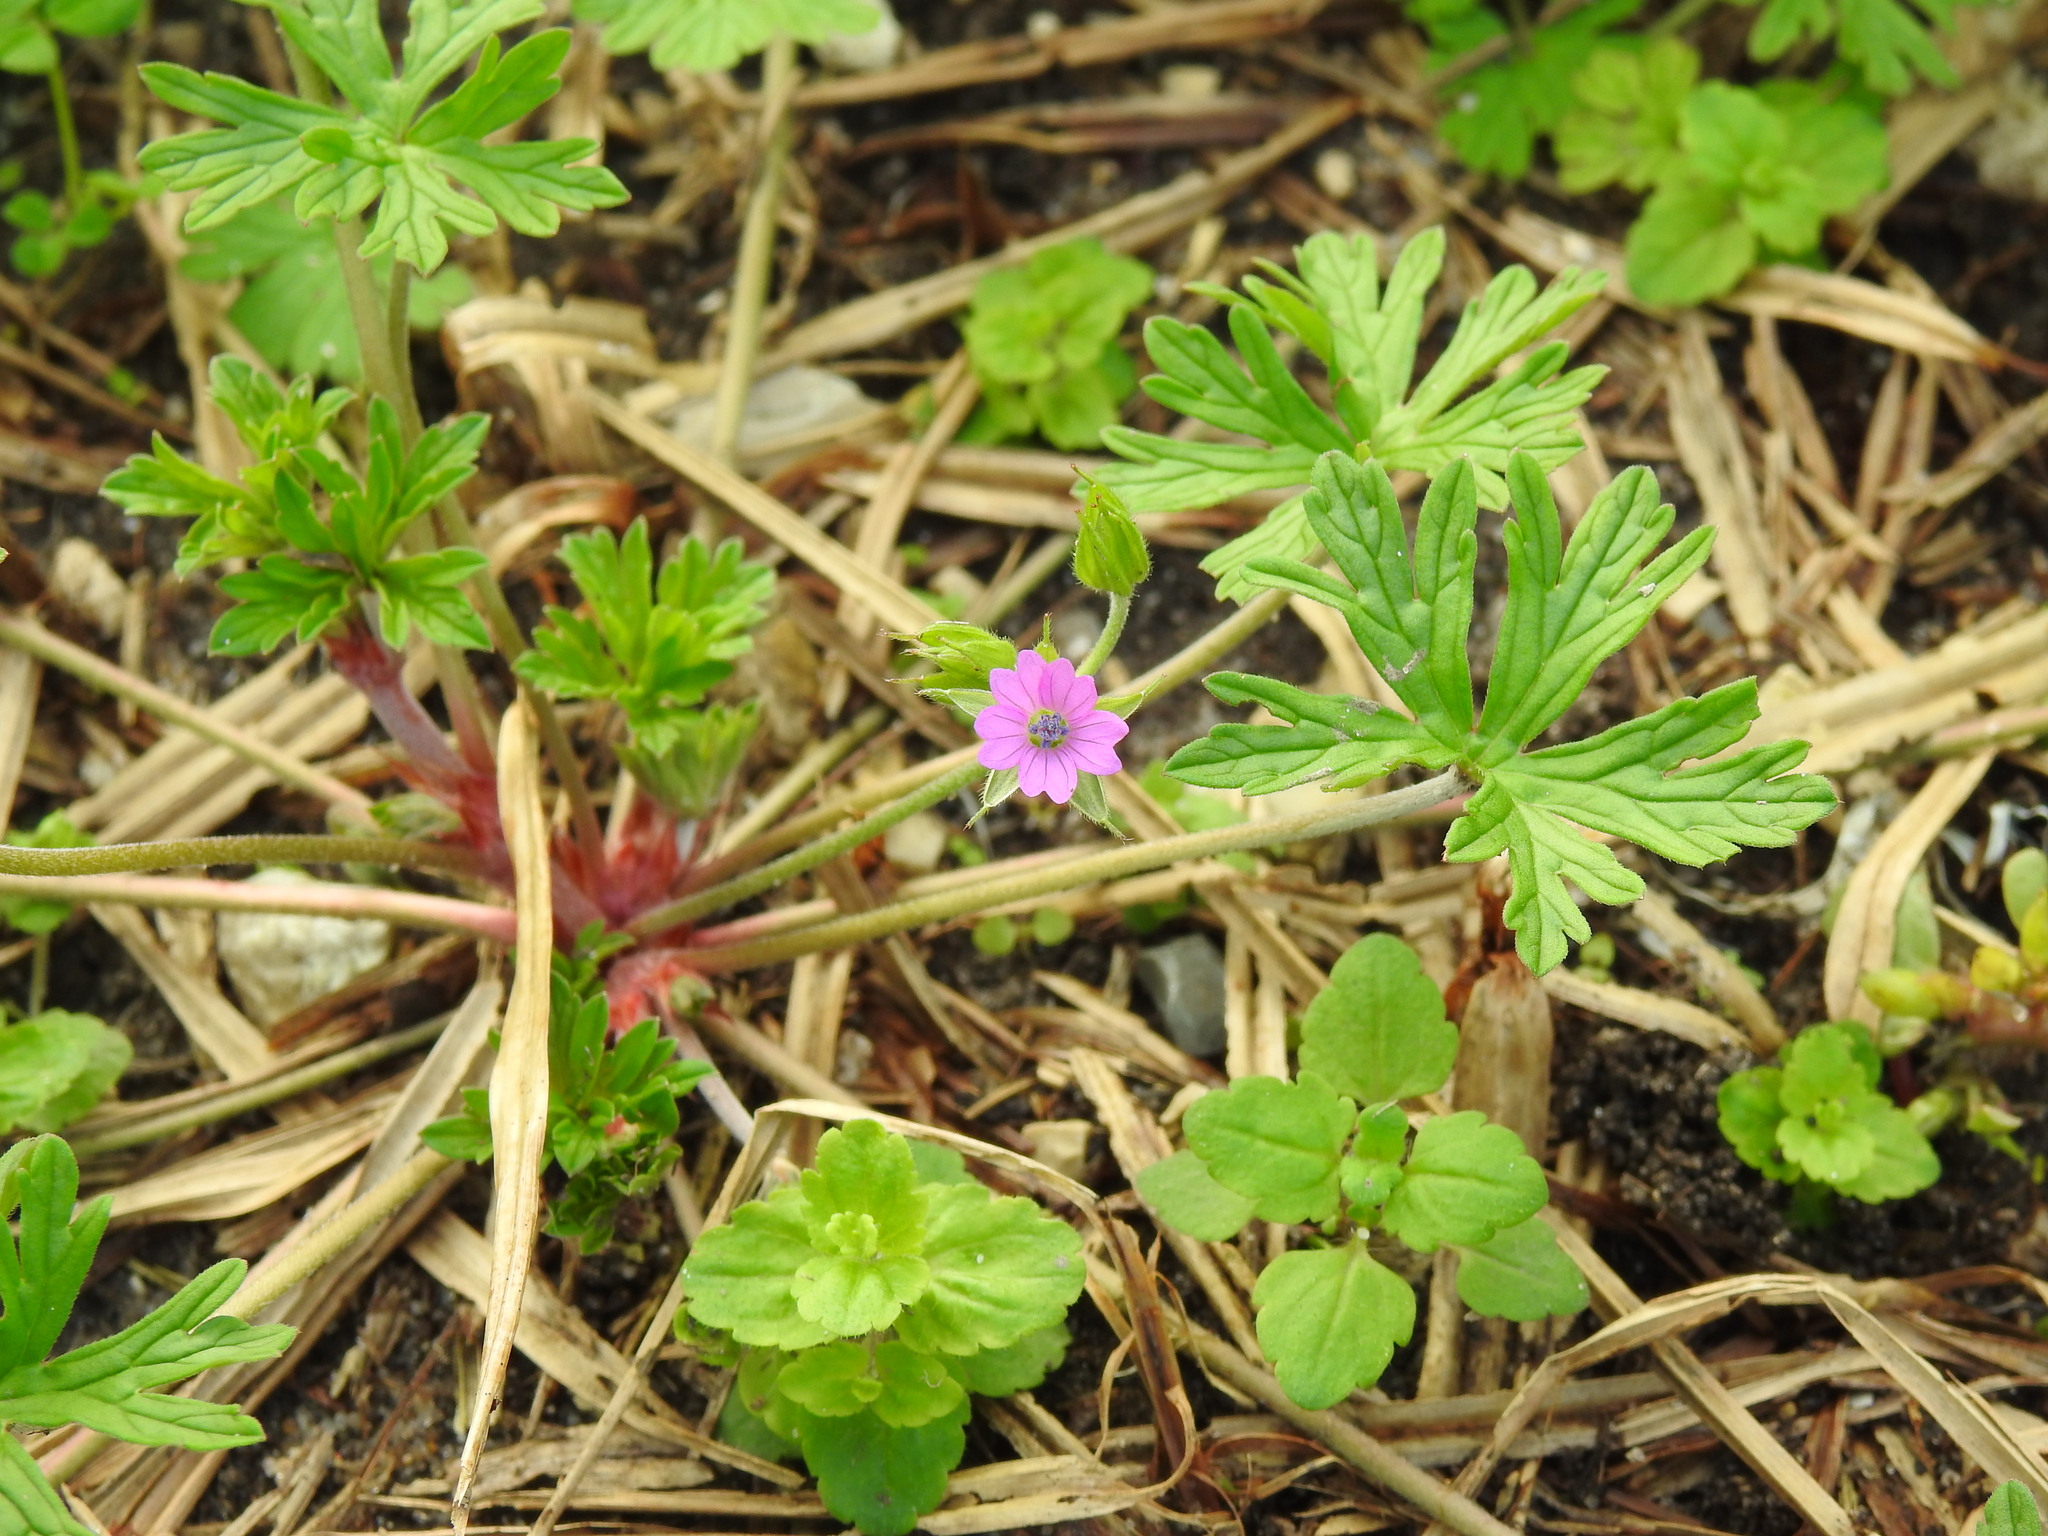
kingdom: Plantae
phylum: Tracheophyta
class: Magnoliopsida
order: Geraniales
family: Geraniaceae
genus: Geranium
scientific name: Geranium dissectum
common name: Cut-leaved crane's-bill
